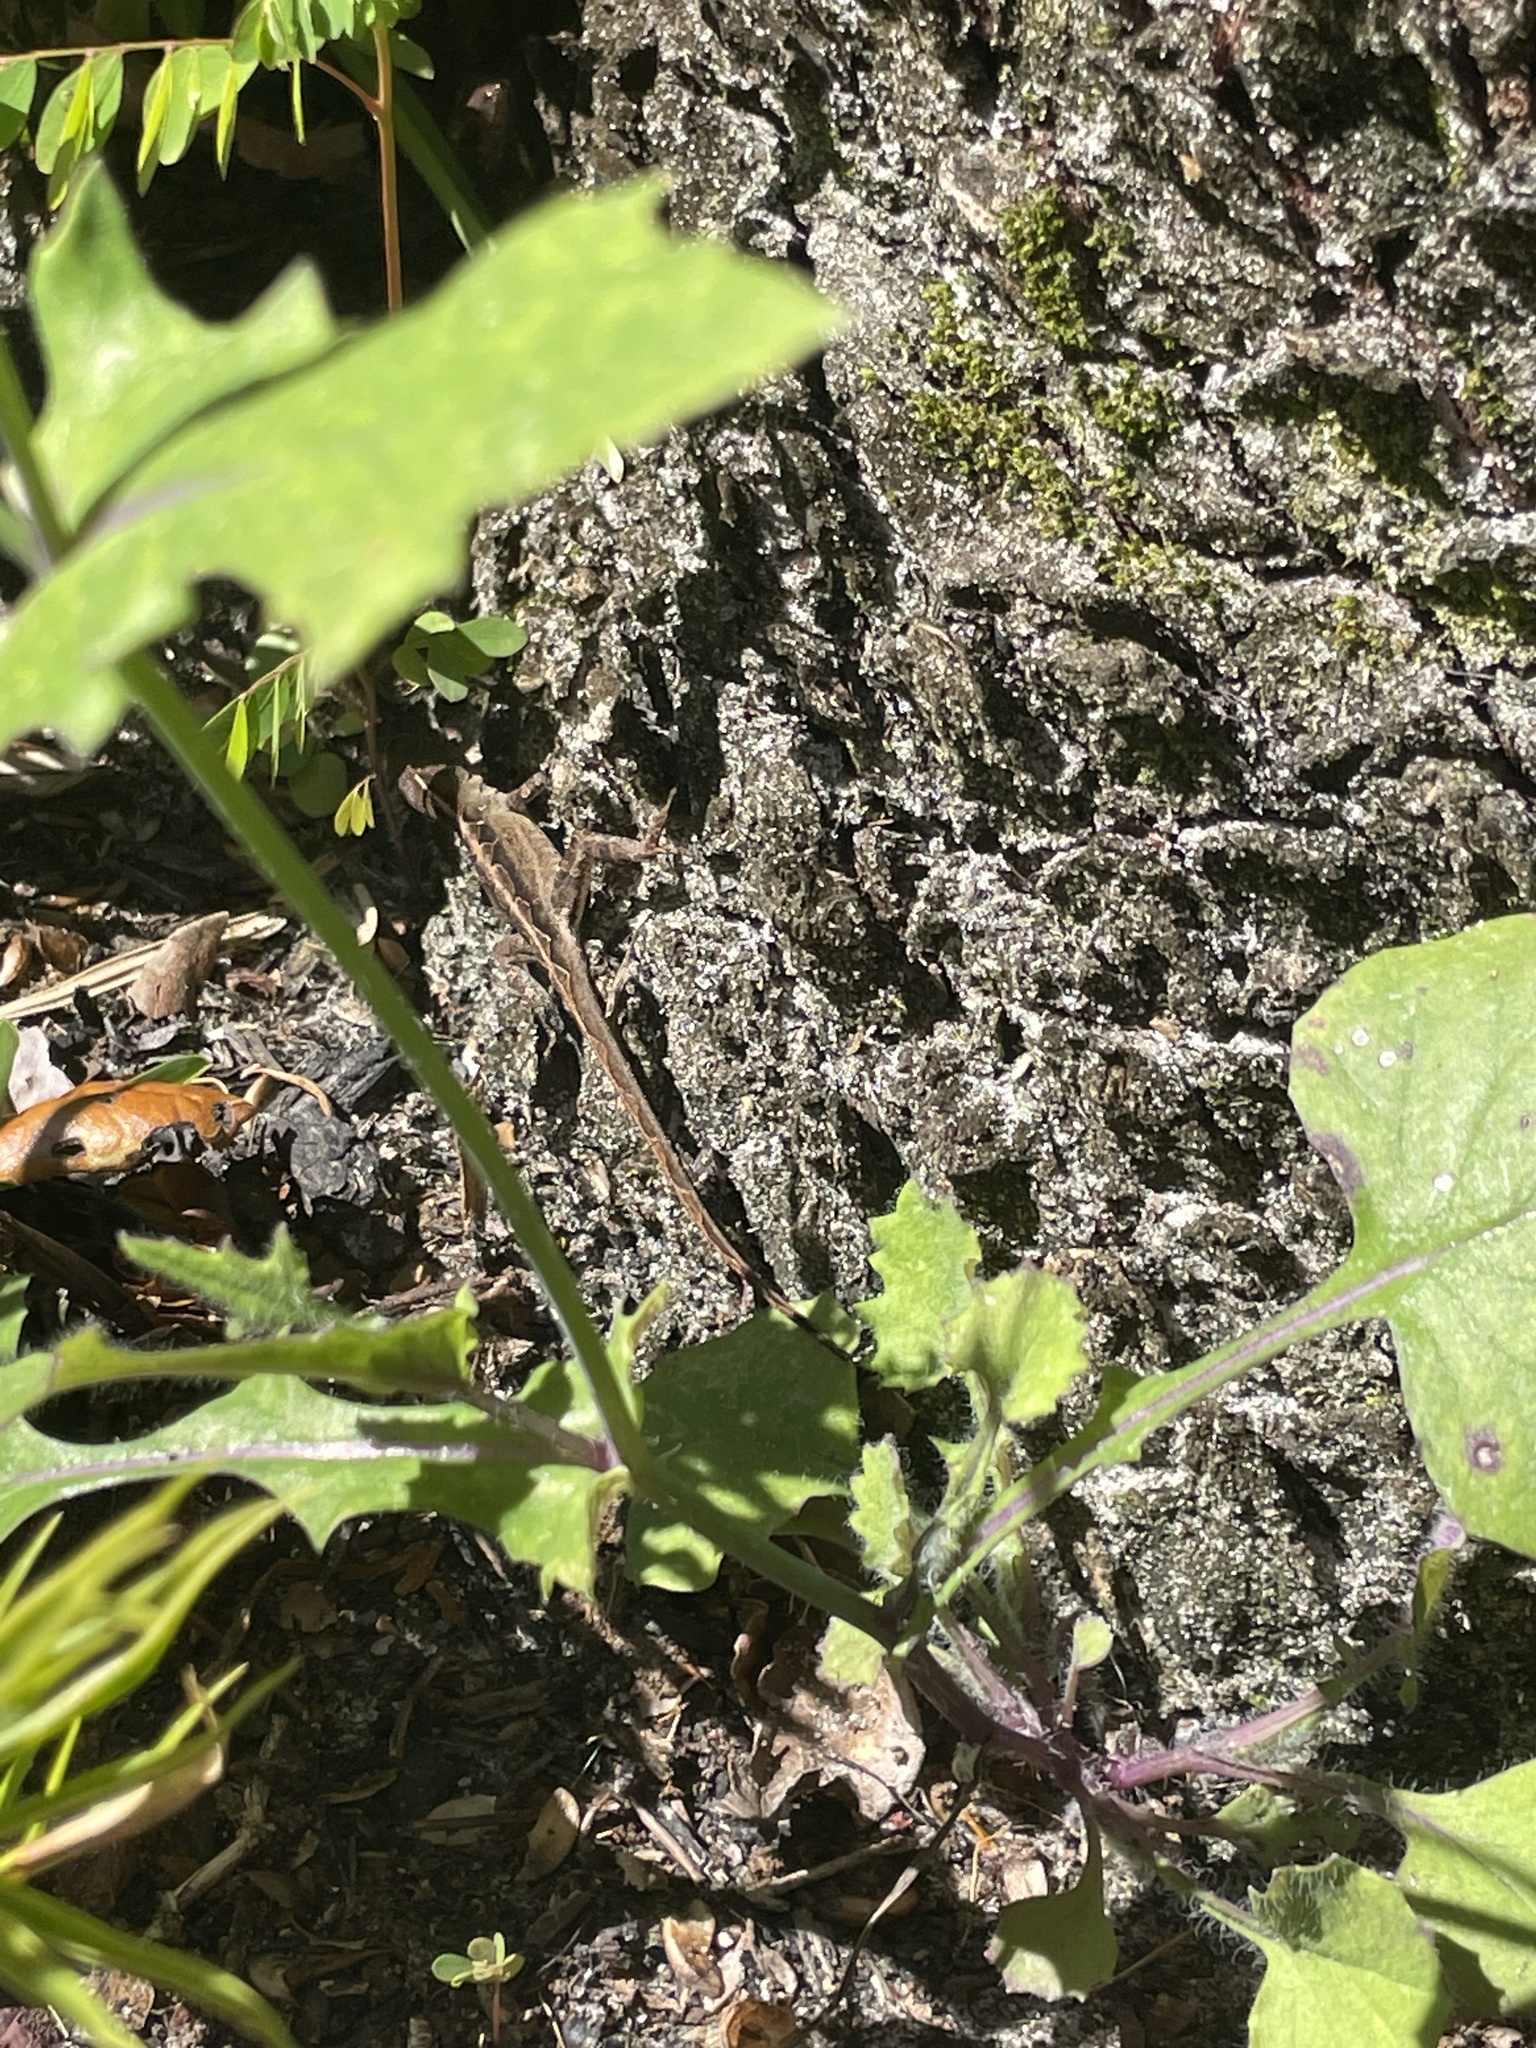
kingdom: Animalia
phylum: Chordata
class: Squamata
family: Dactyloidae
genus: Anolis
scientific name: Anolis sagrei
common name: Brown anole
